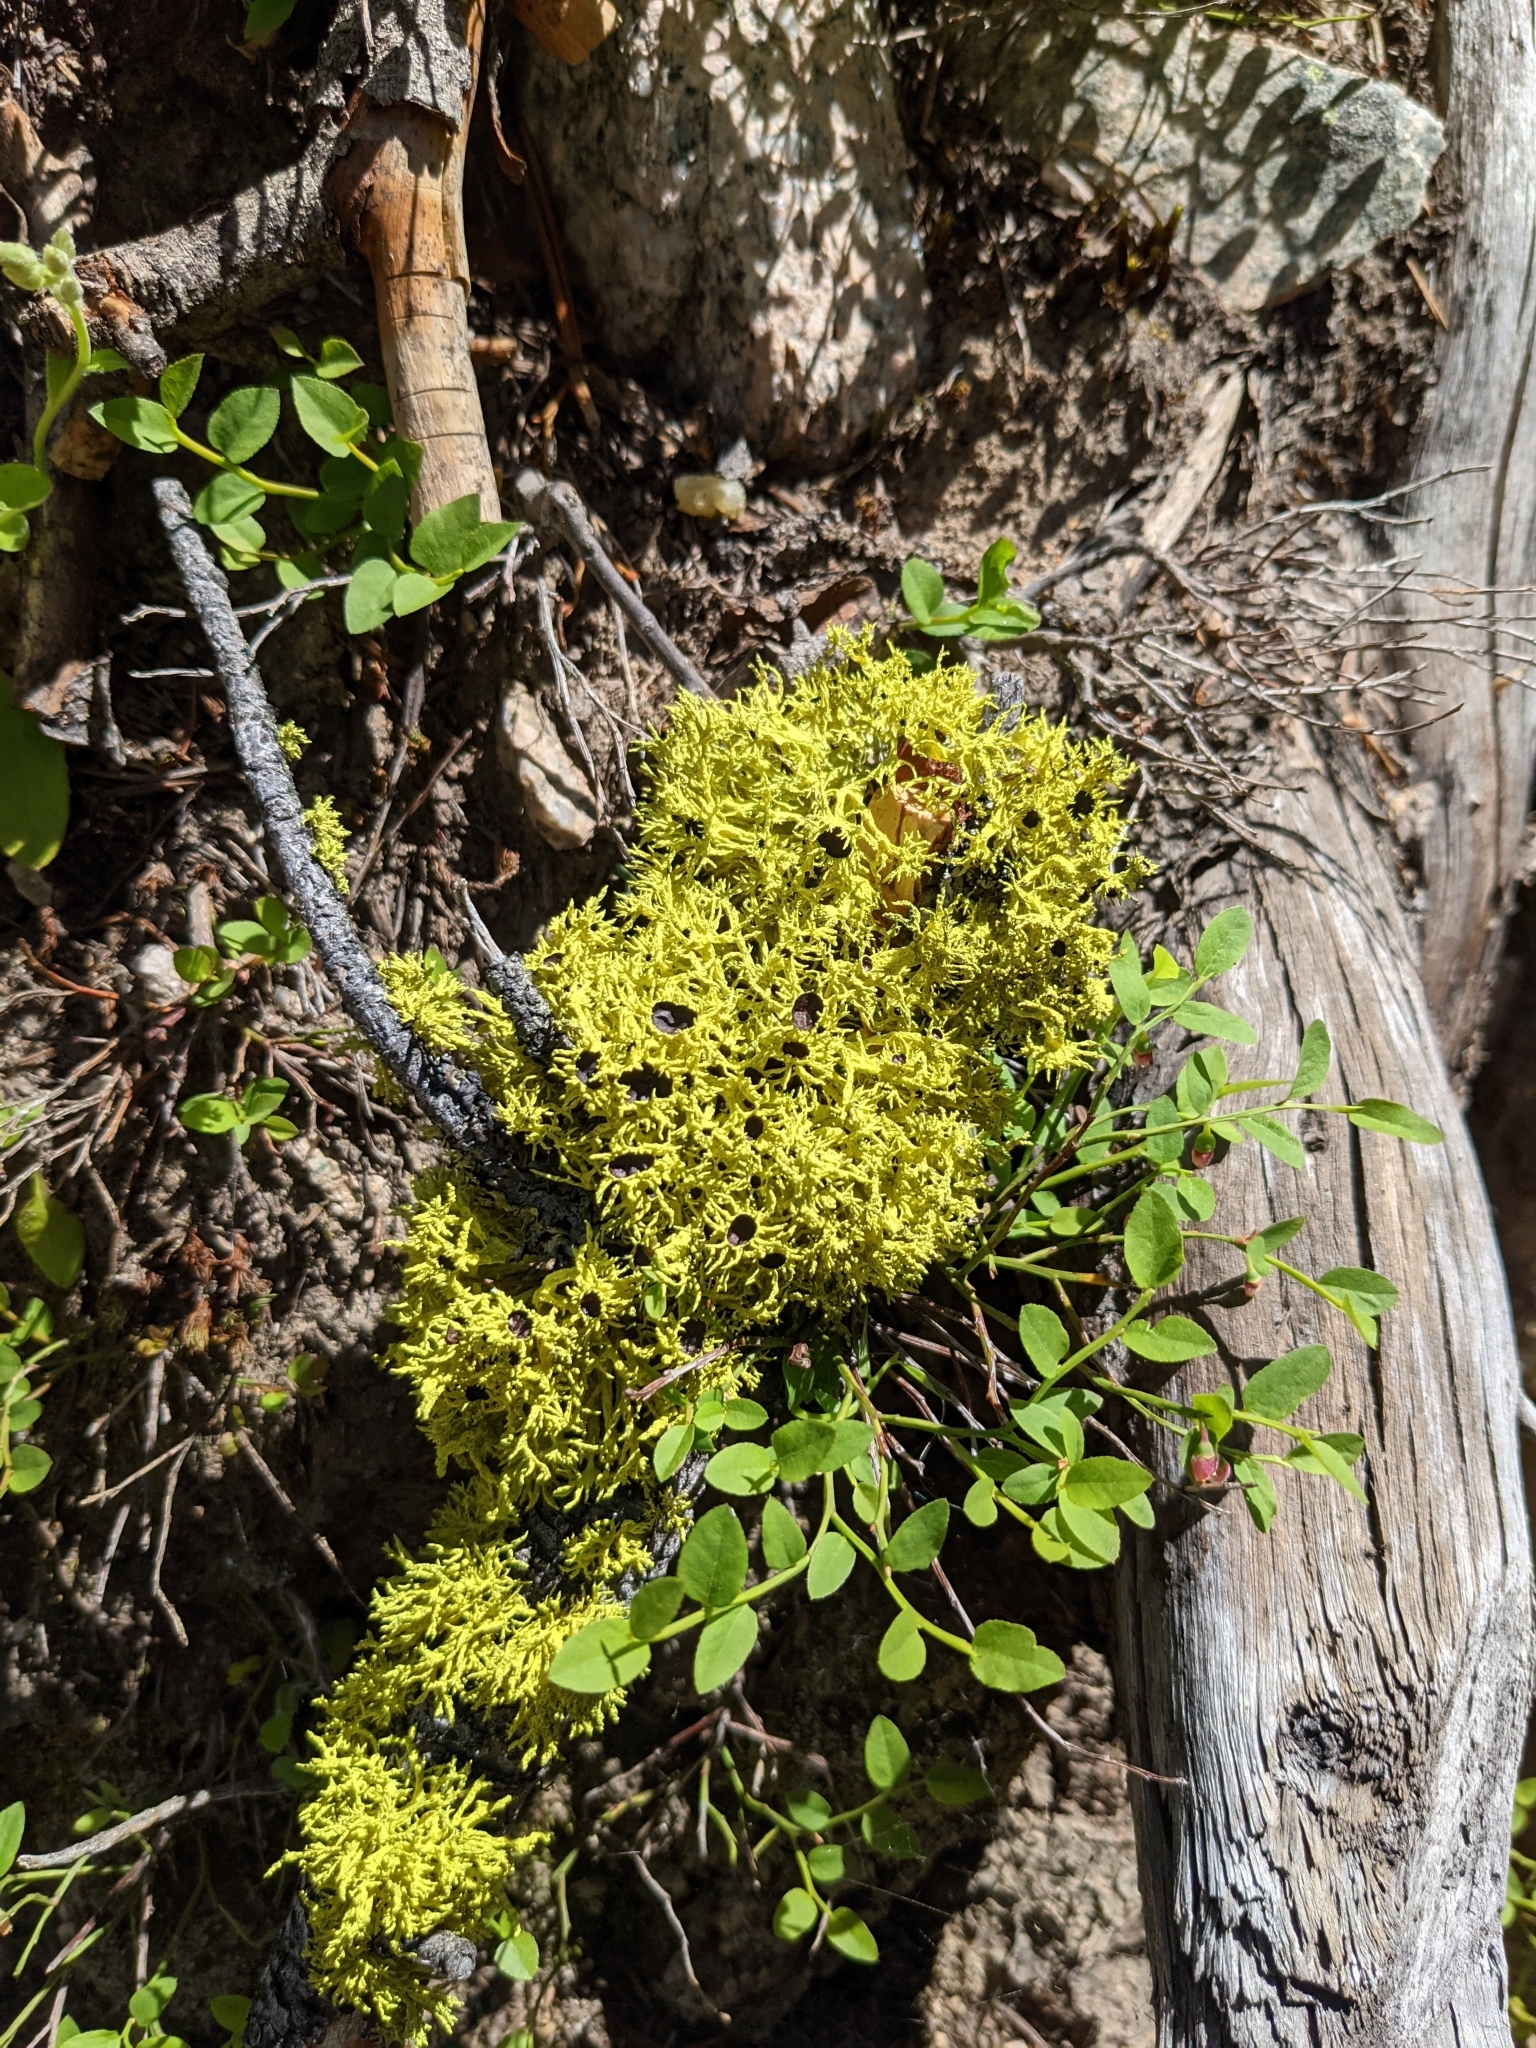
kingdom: Fungi
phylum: Ascomycota
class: Lecanoromycetes
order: Lecanorales
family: Parmeliaceae
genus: Letharia
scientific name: Letharia columbiana
